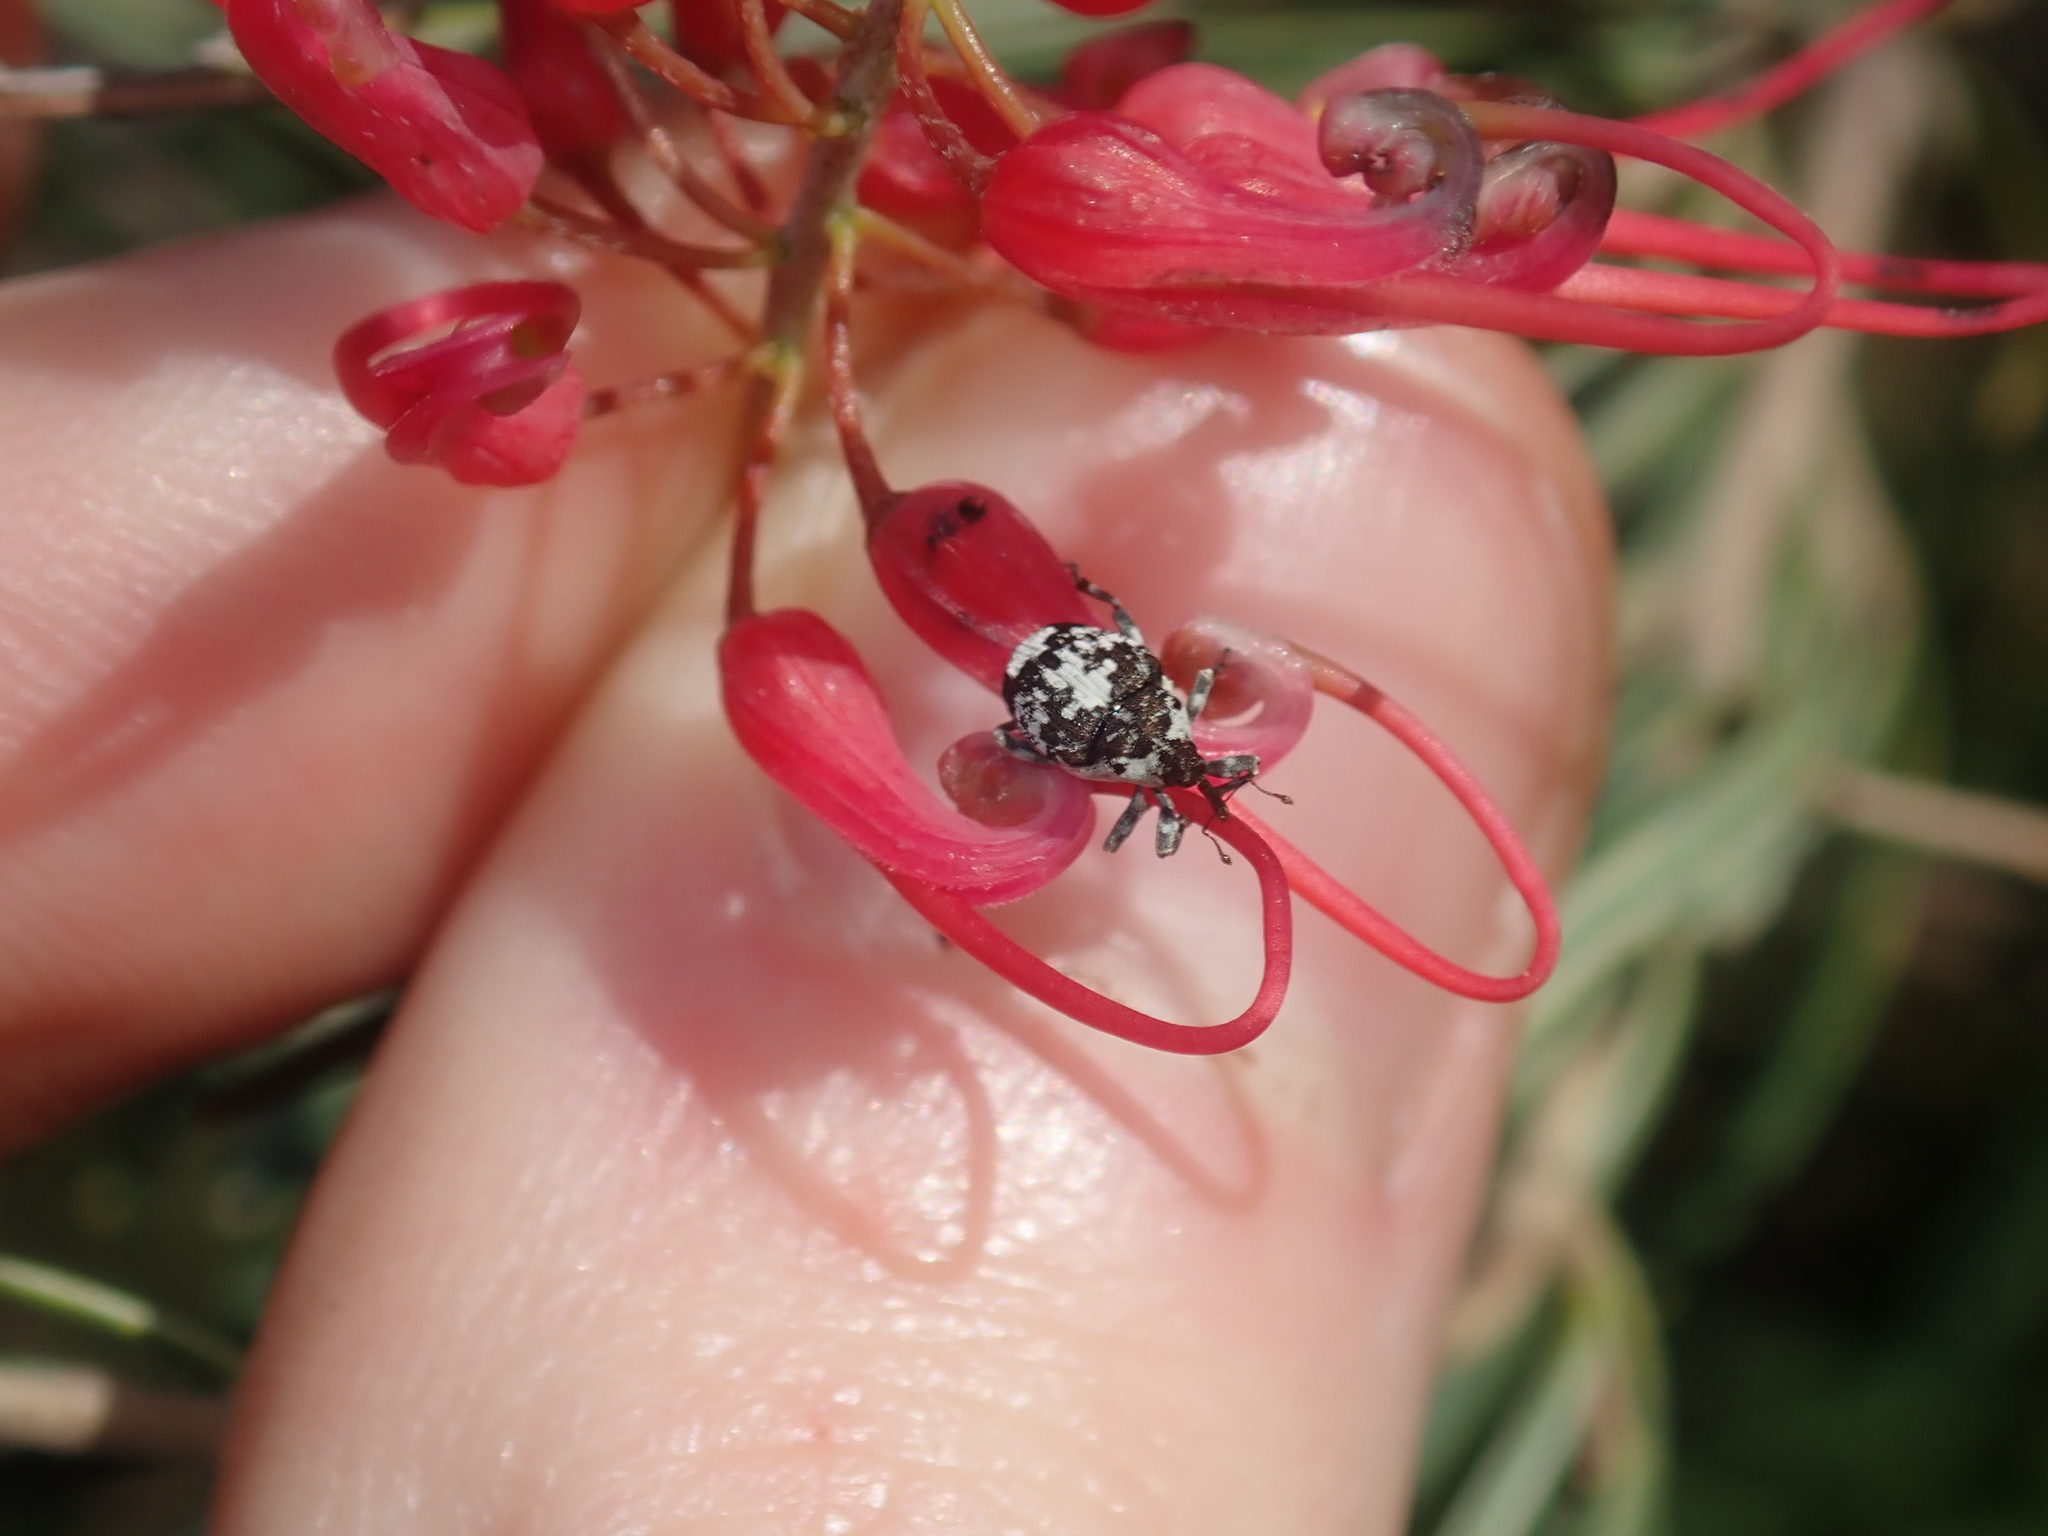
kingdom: Animalia
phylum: Arthropoda
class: Insecta
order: Coleoptera
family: Curculionidae
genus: Ceuthorrhynchus
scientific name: Ceuthorrhynchus larvatus
